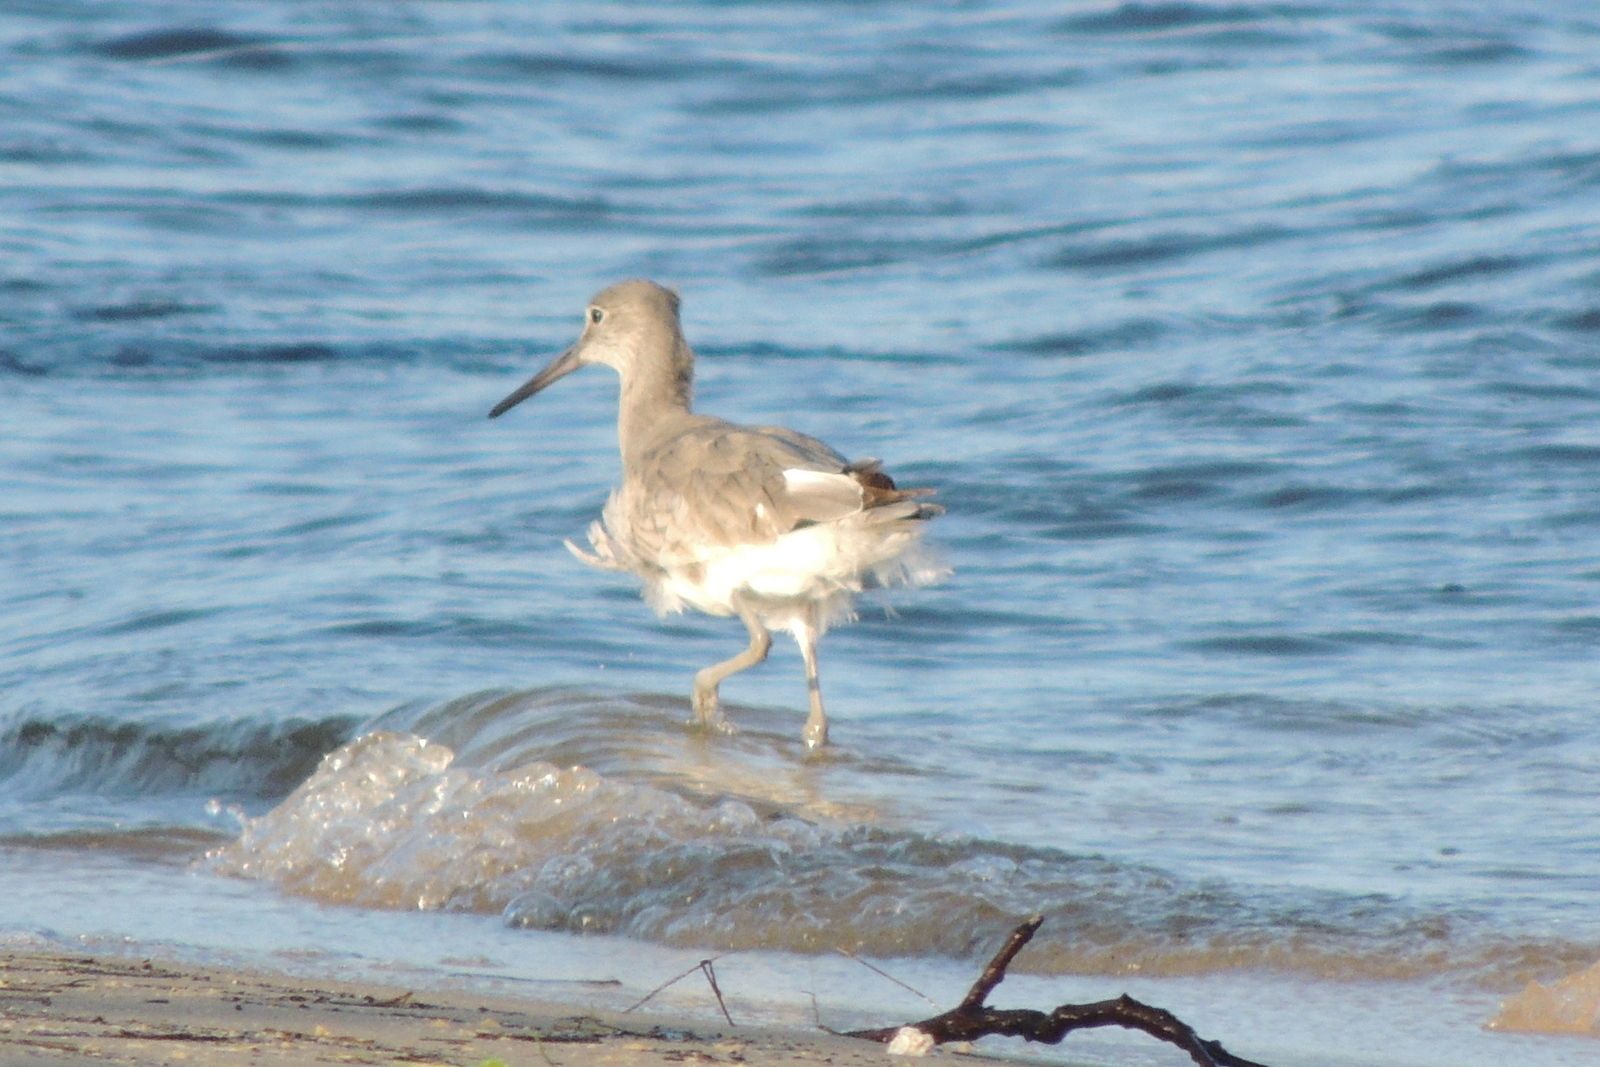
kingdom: Animalia
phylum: Chordata
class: Aves
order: Charadriiformes
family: Scolopacidae
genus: Tringa
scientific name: Tringa semipalmata
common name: Willet
